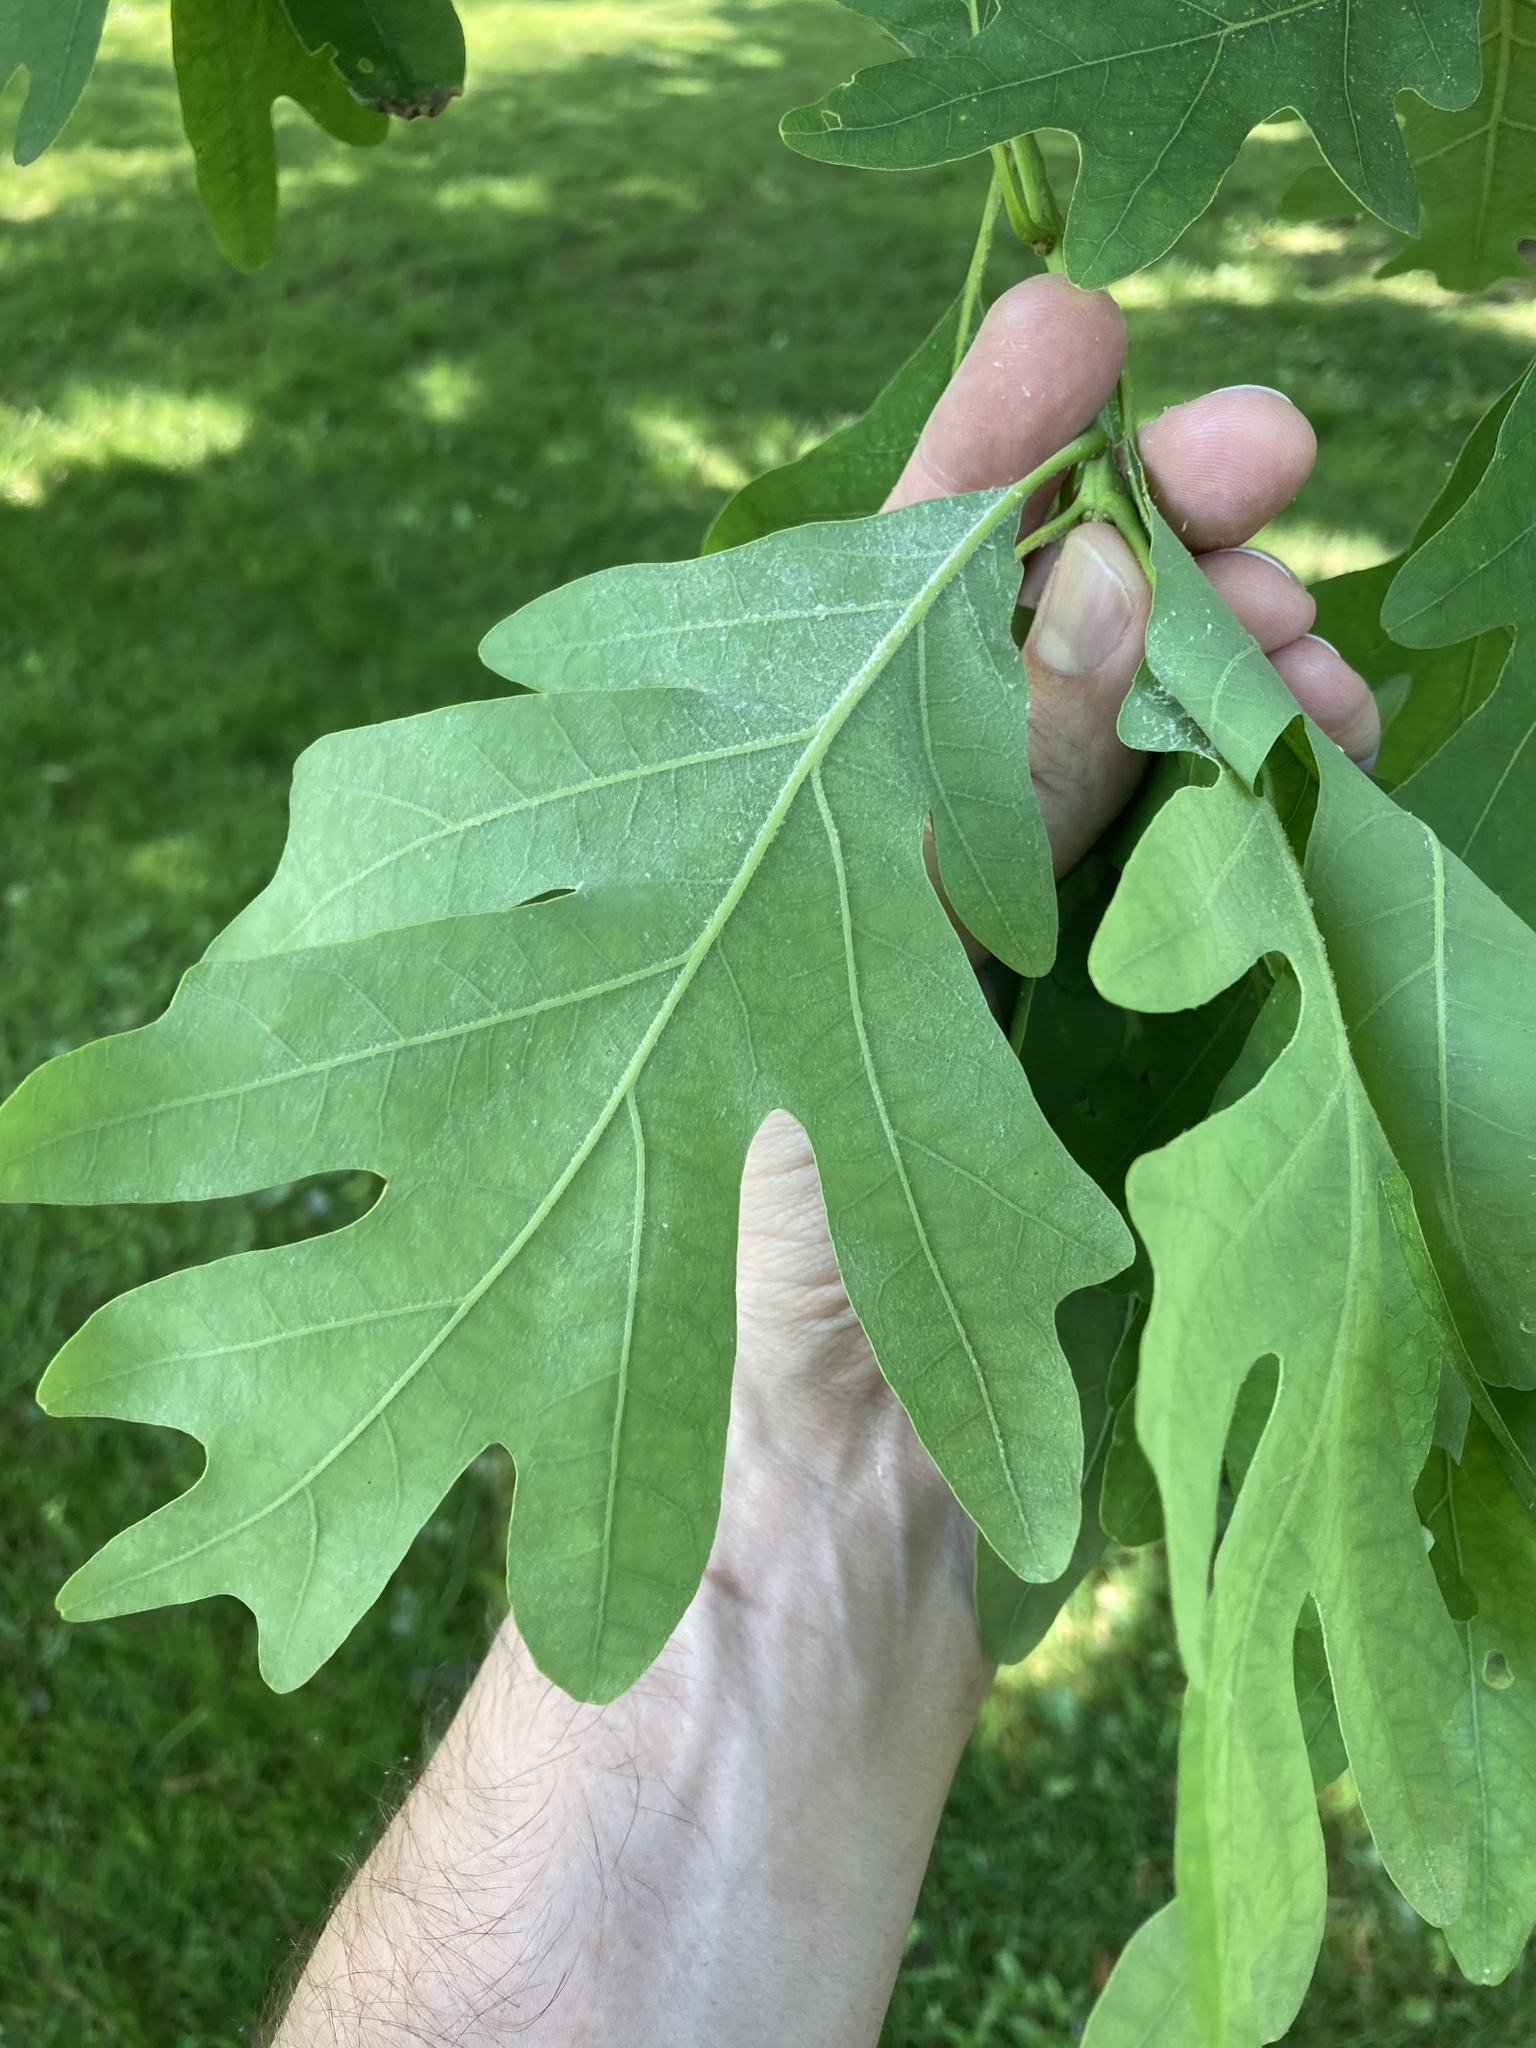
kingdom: Plantae
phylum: Tracheophyta
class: Magnoliopsida
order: Fagales
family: Fagaceae
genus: Quercus
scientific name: Quercus alba
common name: White oak
